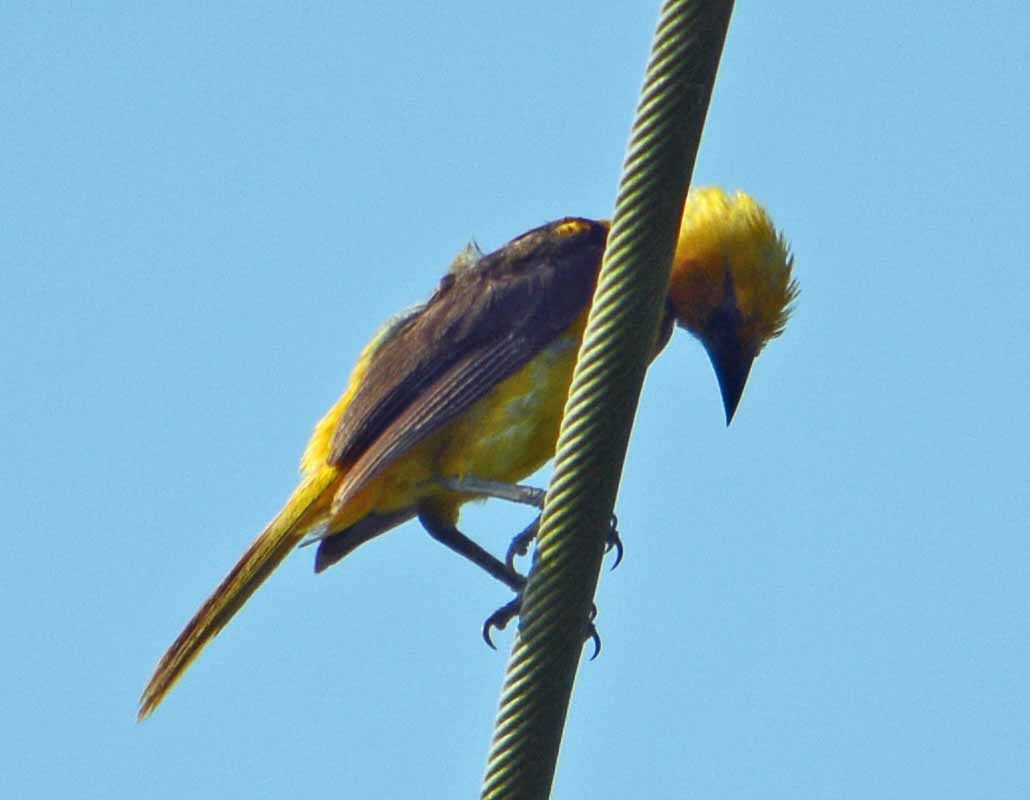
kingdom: Animalia
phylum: Chordata
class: Aves
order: Passeriformes
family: Icteridae
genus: Icterus
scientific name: Icterus gularis
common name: Altamira oriole
